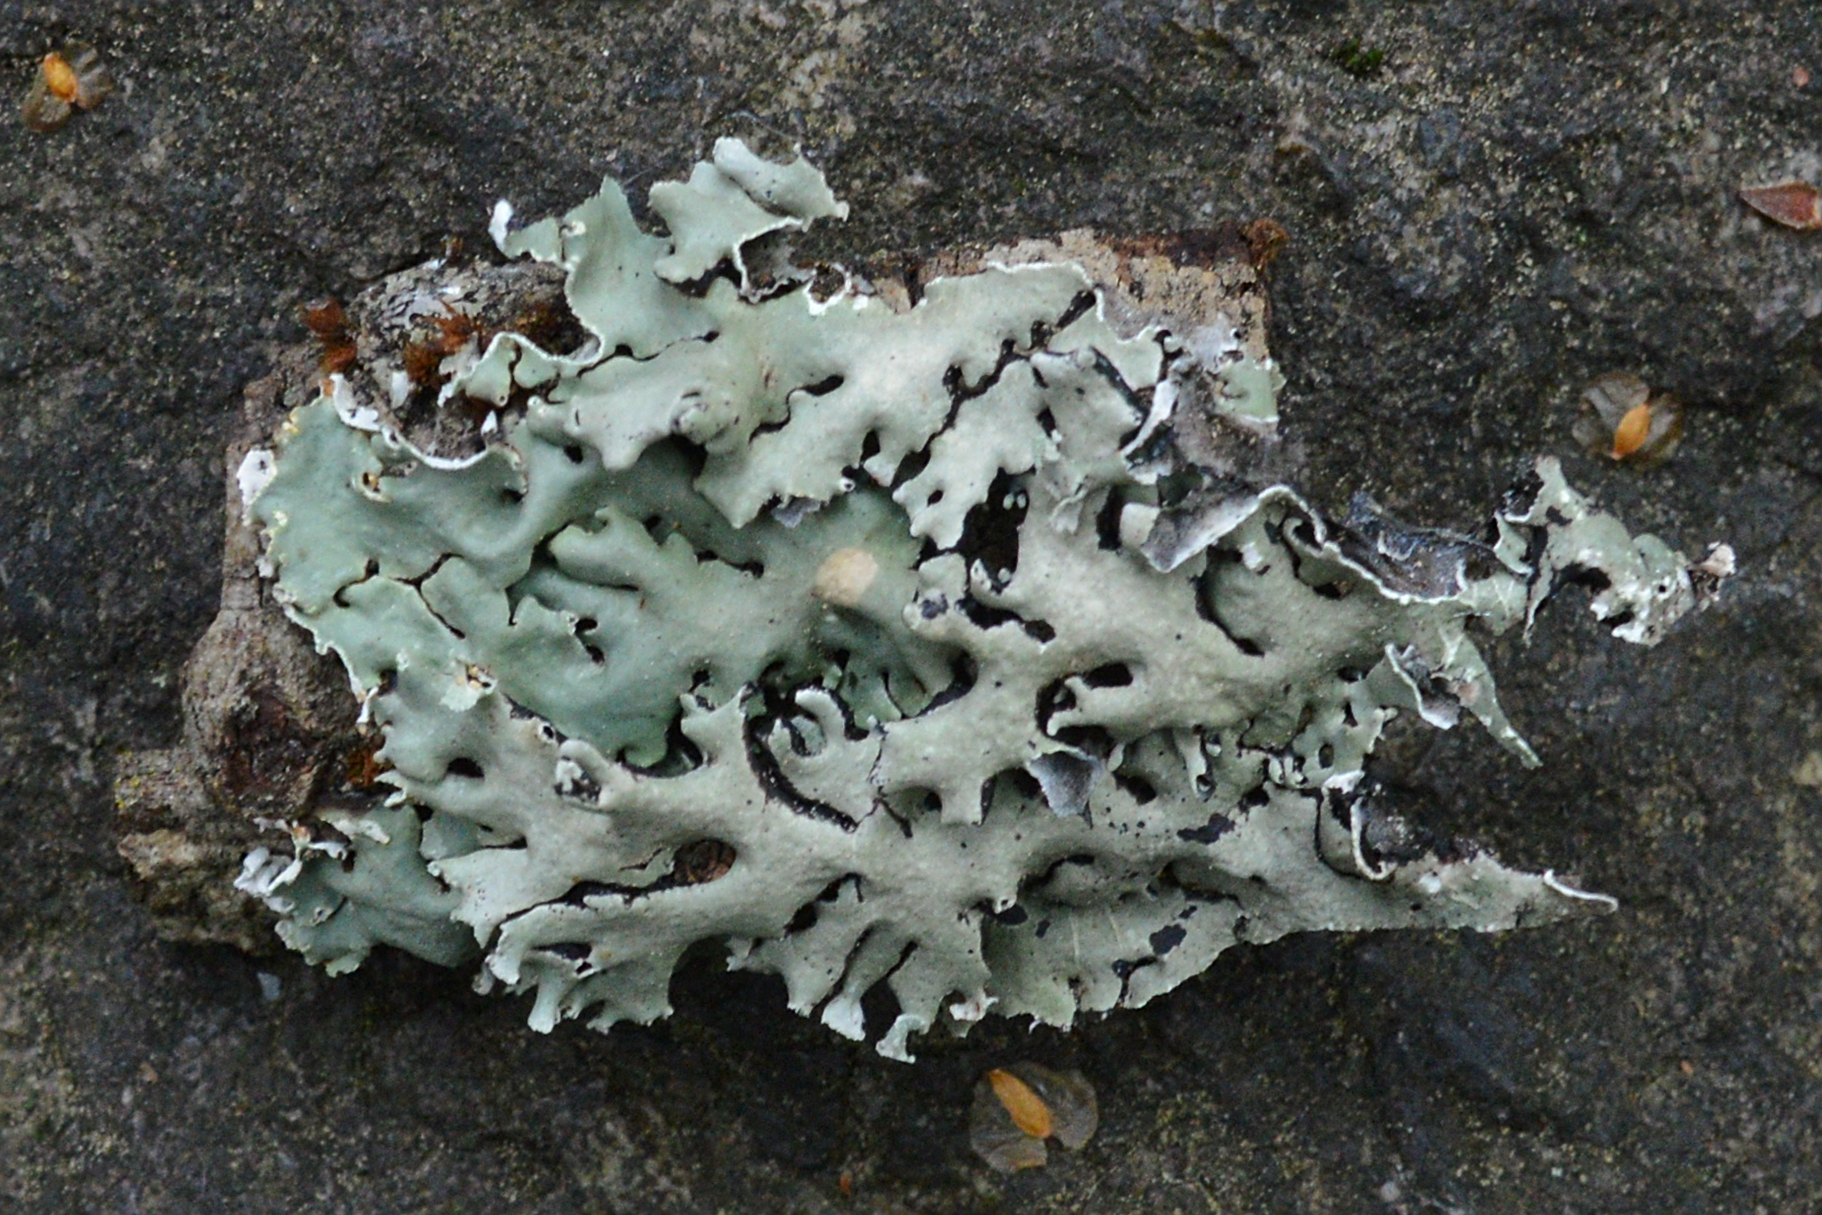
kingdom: Fungi
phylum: Ascomycota
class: Lecanoromycetes
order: Lecanorales
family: Parmeliaceae
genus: Hypogymnia
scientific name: Hypogymnia physodes
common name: Dark crottle
